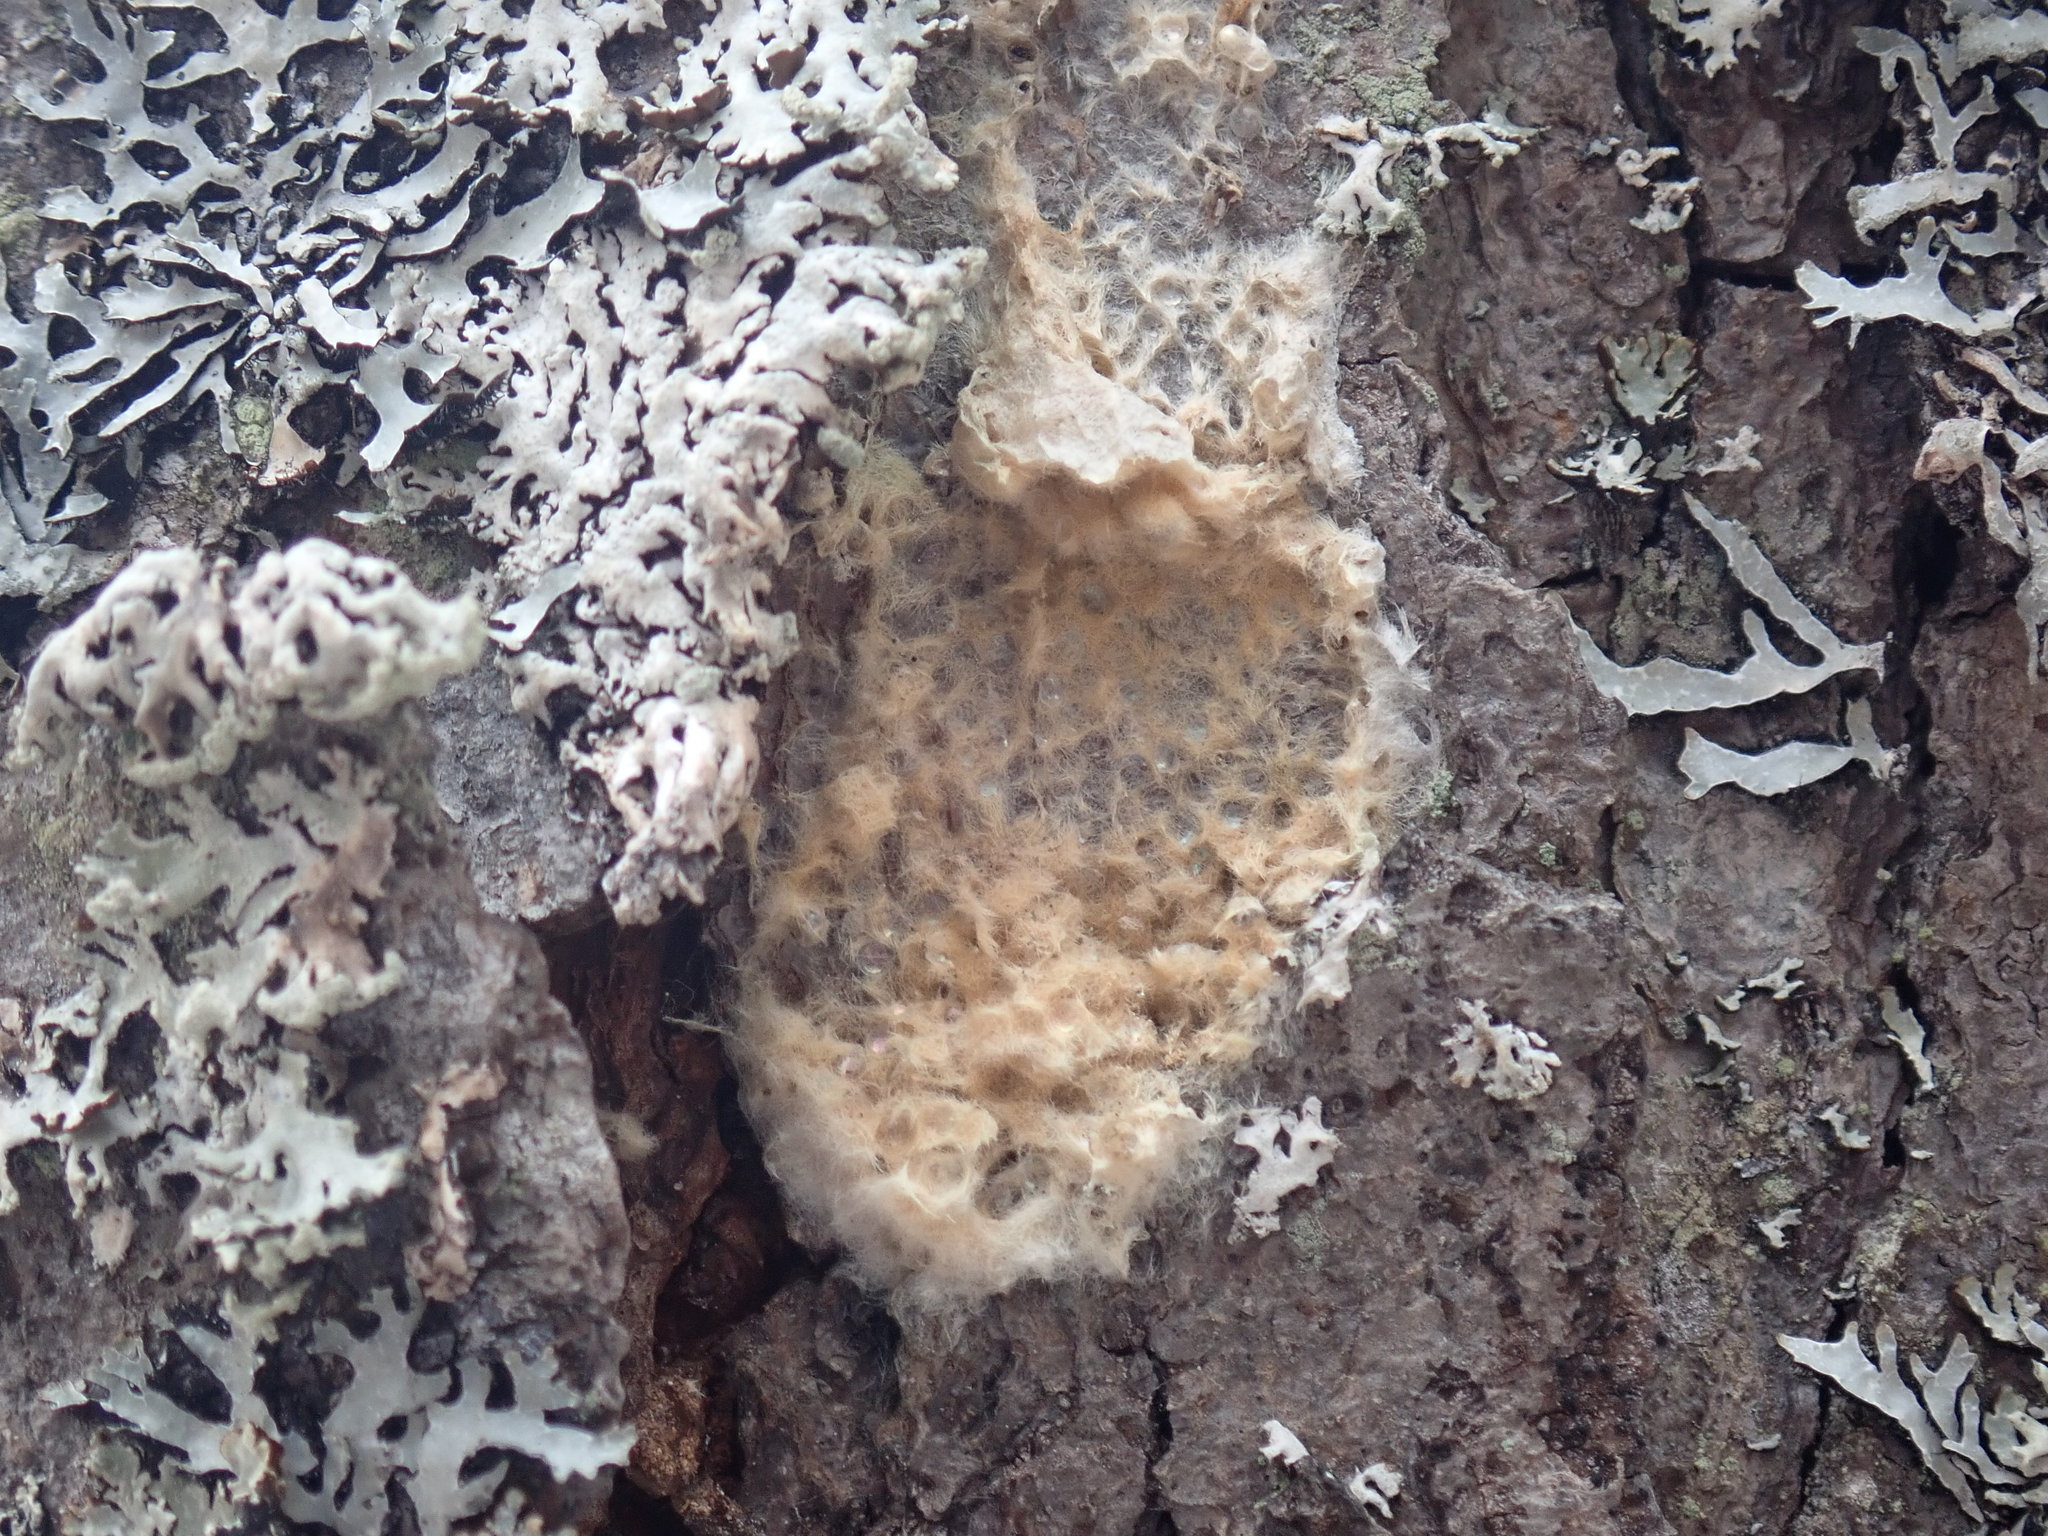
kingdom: Animalia
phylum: Arthropoda
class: Insecta
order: Lepidoptera
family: Erebidae
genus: Lymantria
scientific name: Lymantria dispar
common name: Gypsy moth
